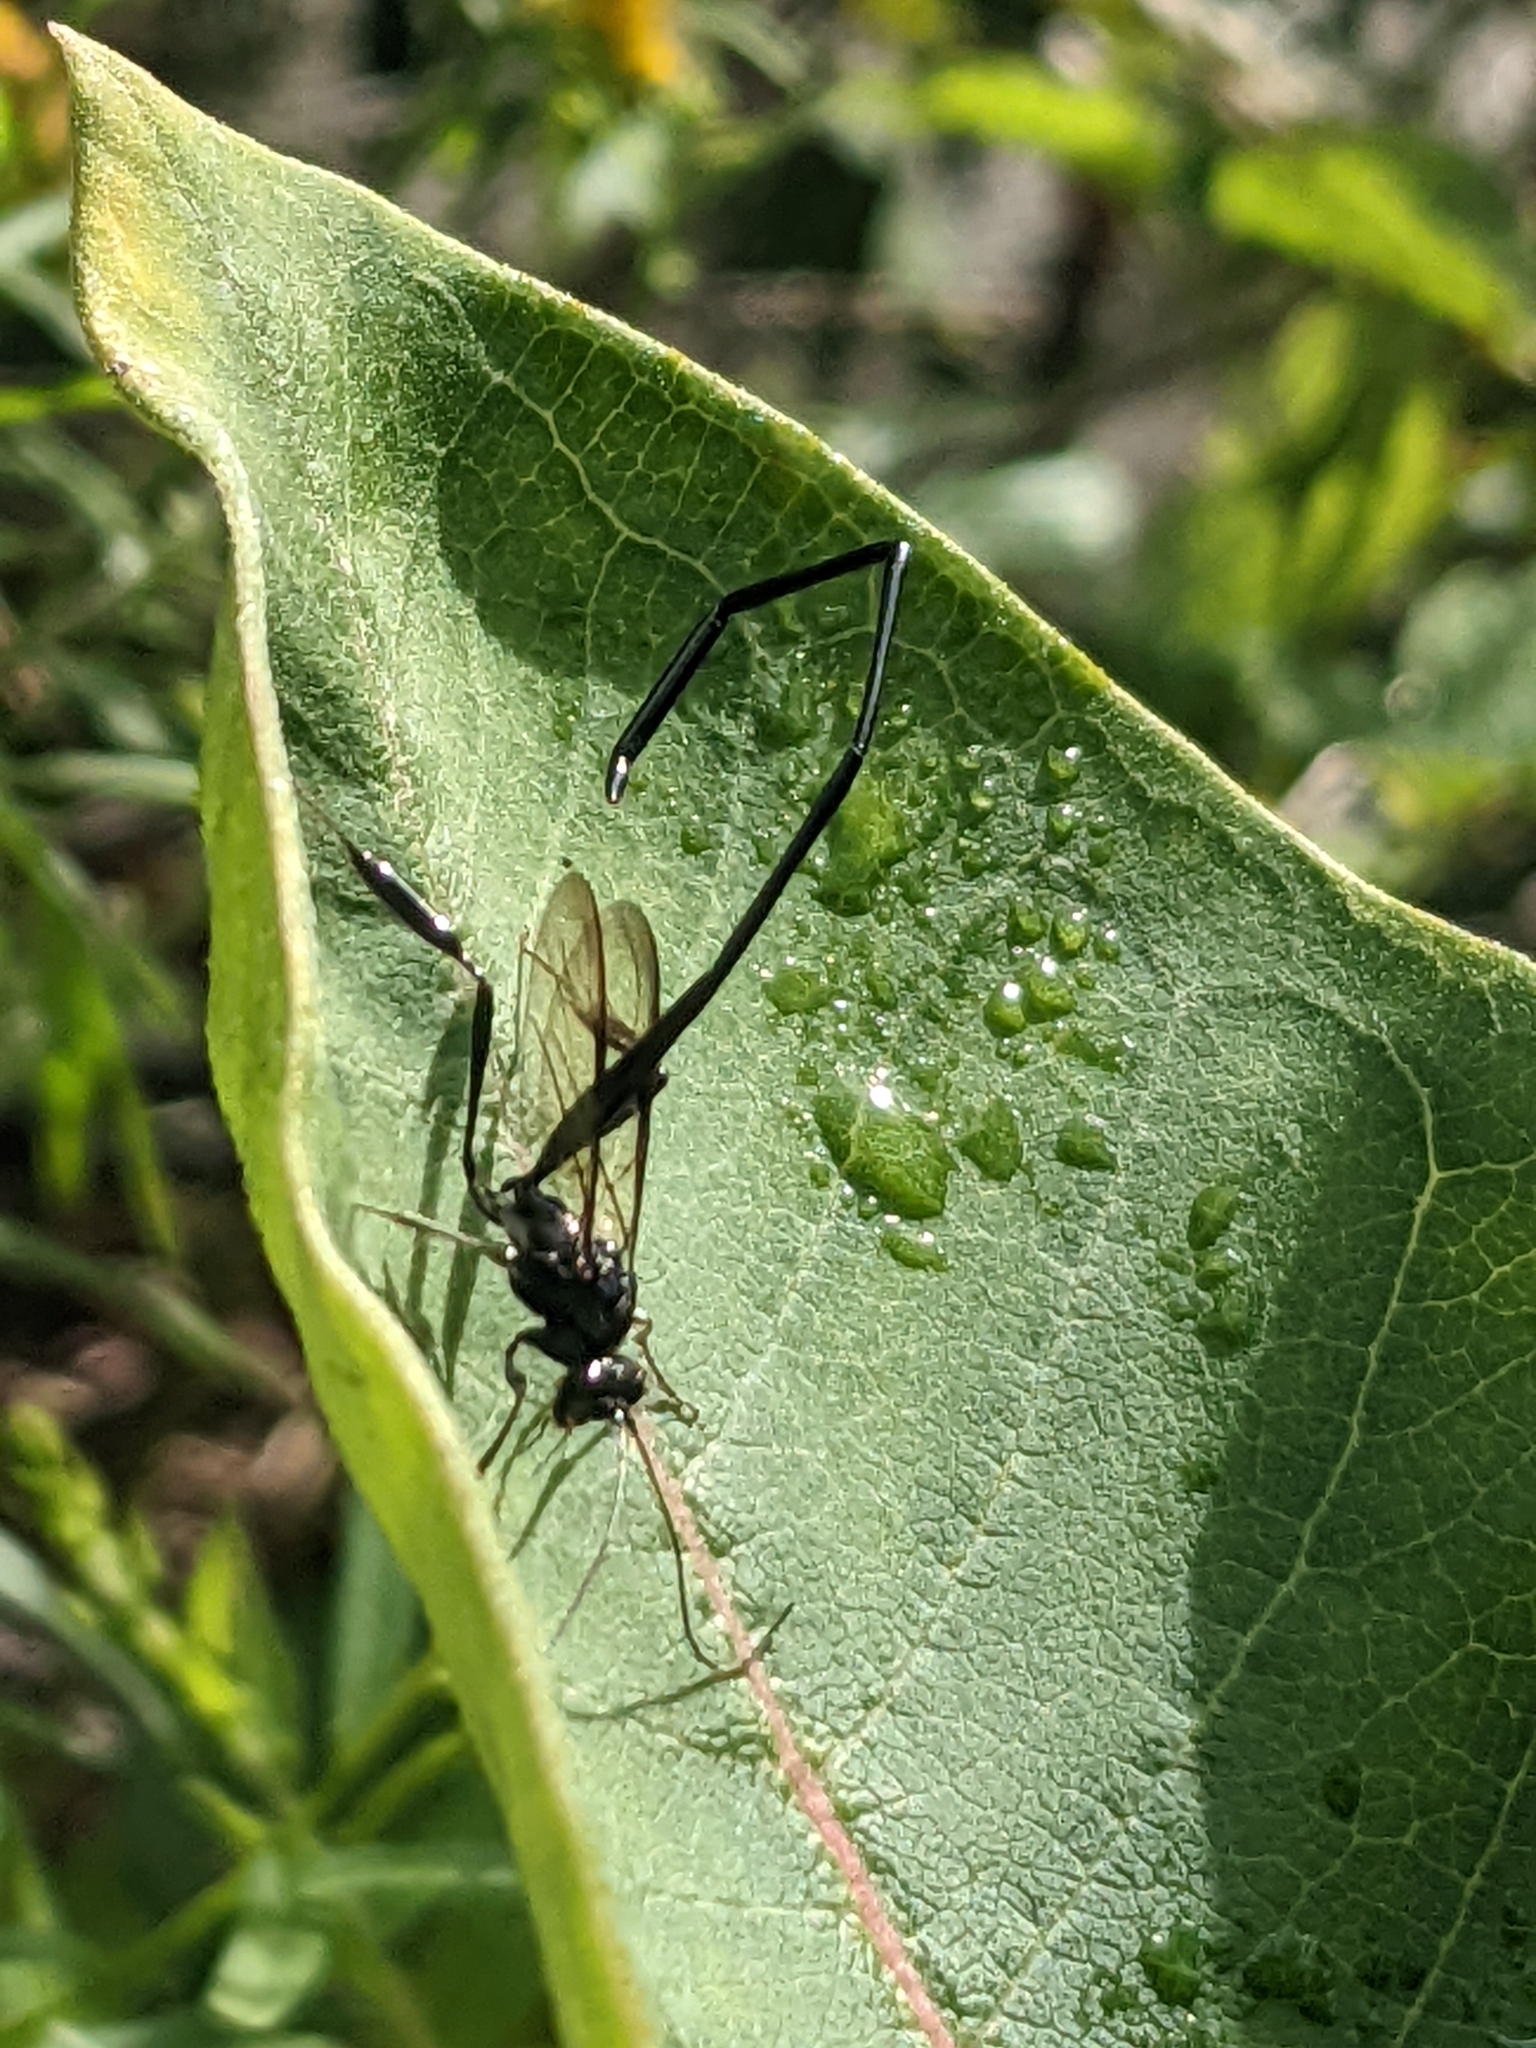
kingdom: Animalia
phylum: Arthropoda
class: Insecta
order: Hymenoptera
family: Pelecinidae
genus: Pelecinus
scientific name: Pelecinus polyturator
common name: American pelecinid wasp
